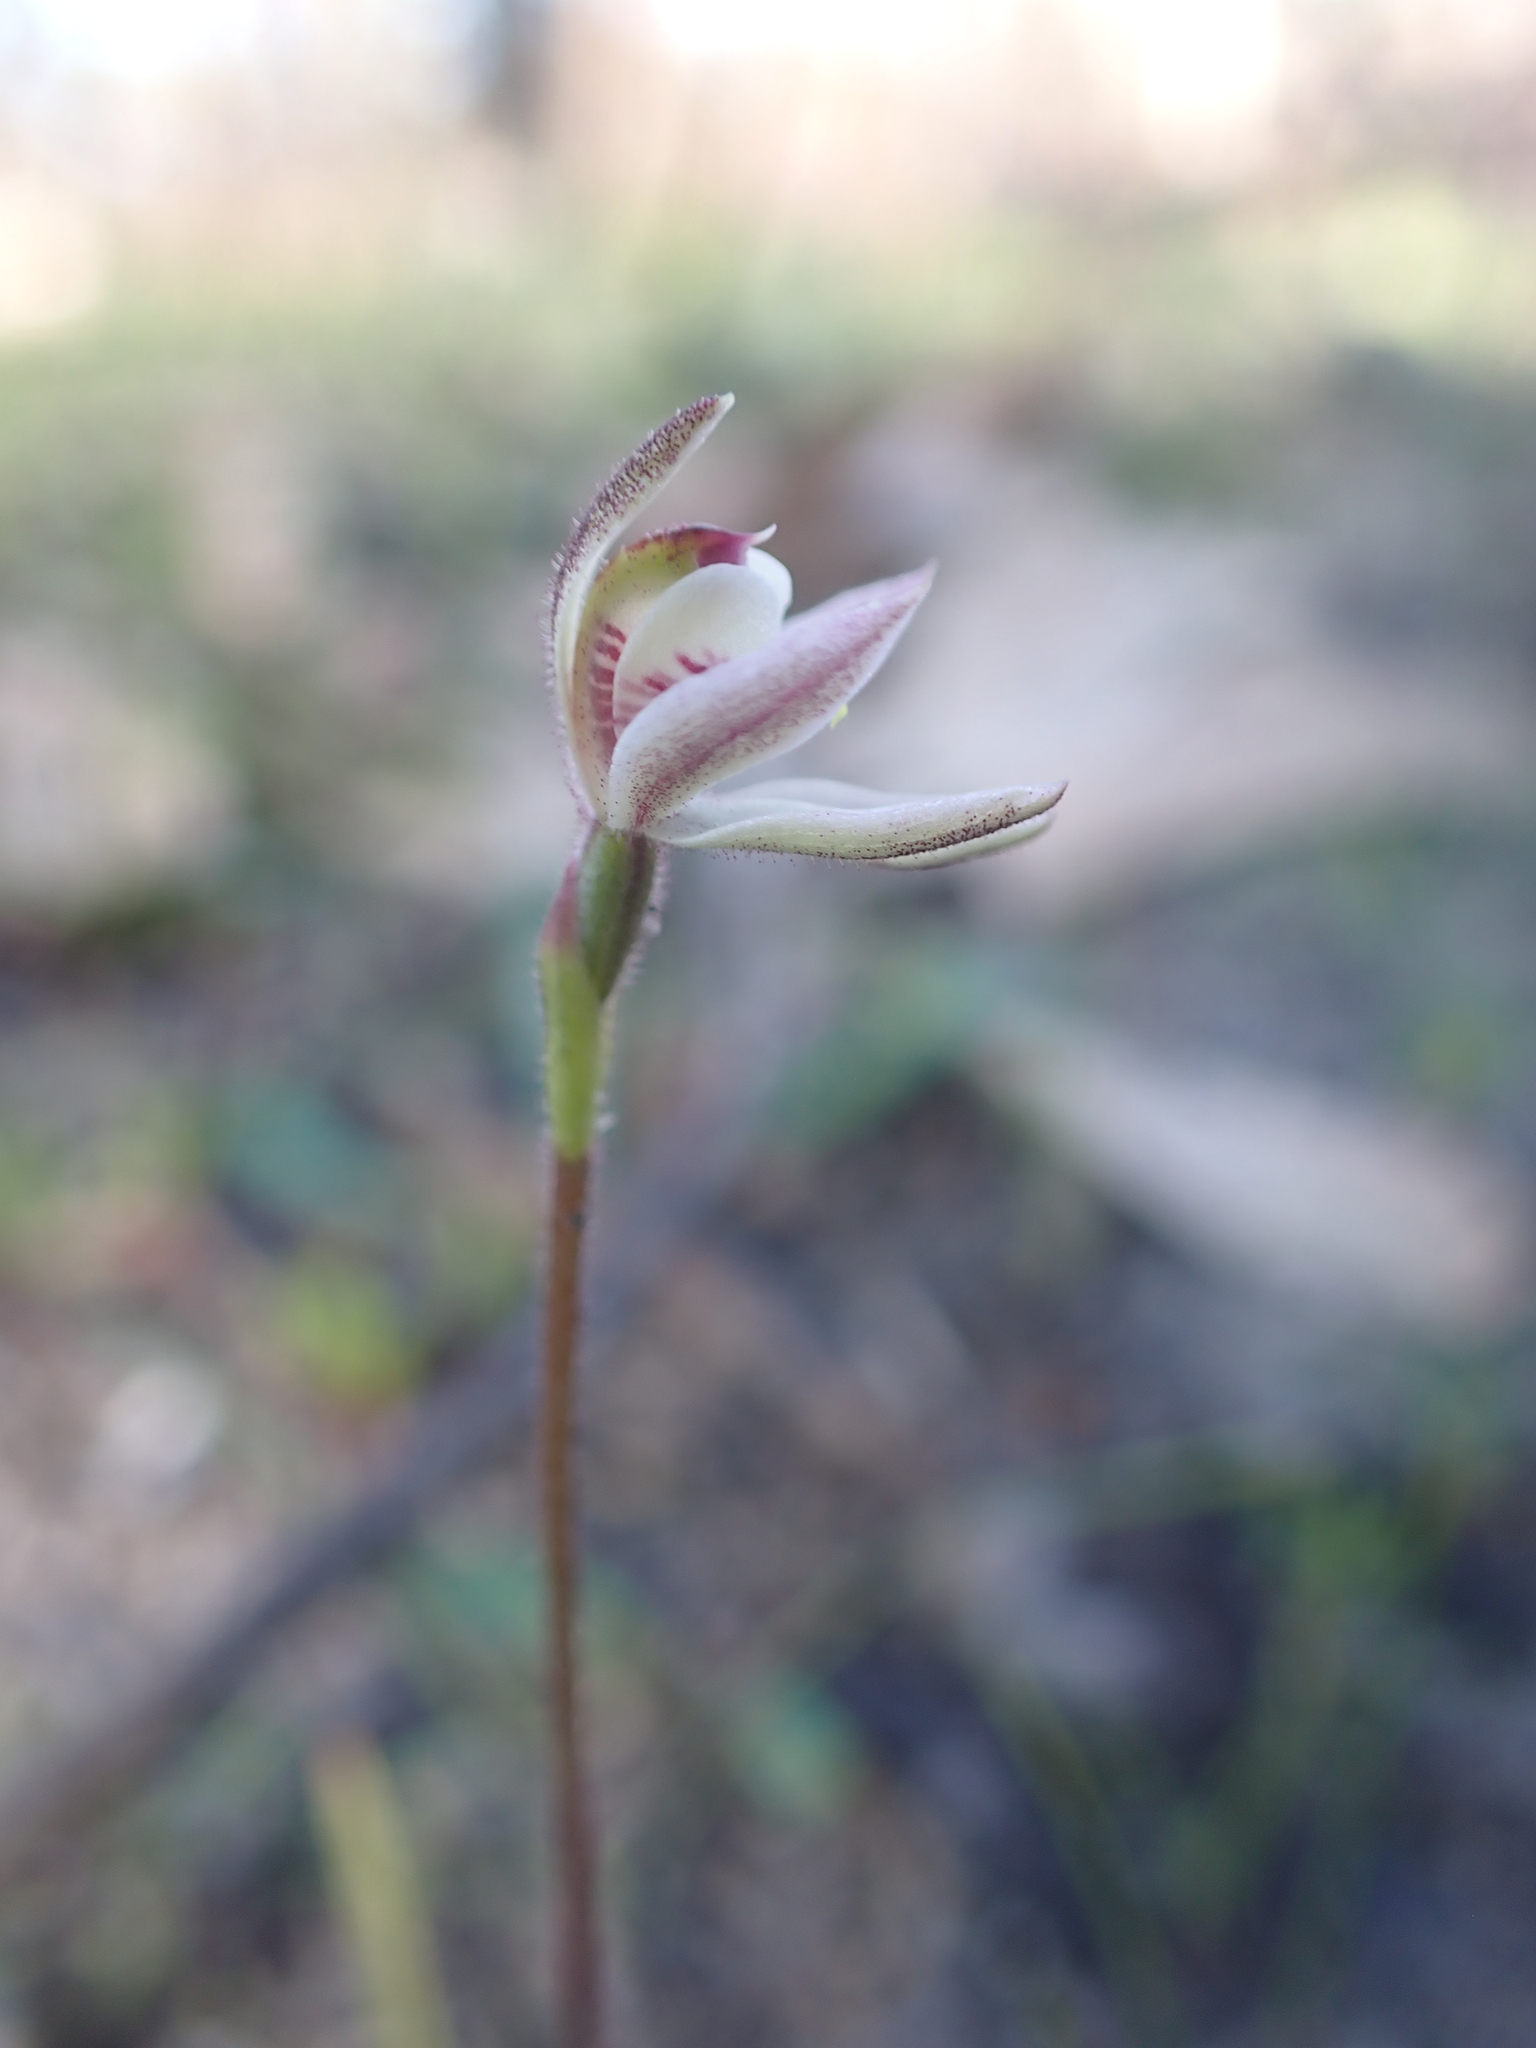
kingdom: Plantae
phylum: Tracheophyta
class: Liliopsida
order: Asparagales
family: Orchidaceae
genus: Caladenia
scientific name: Caladenia pusilla
